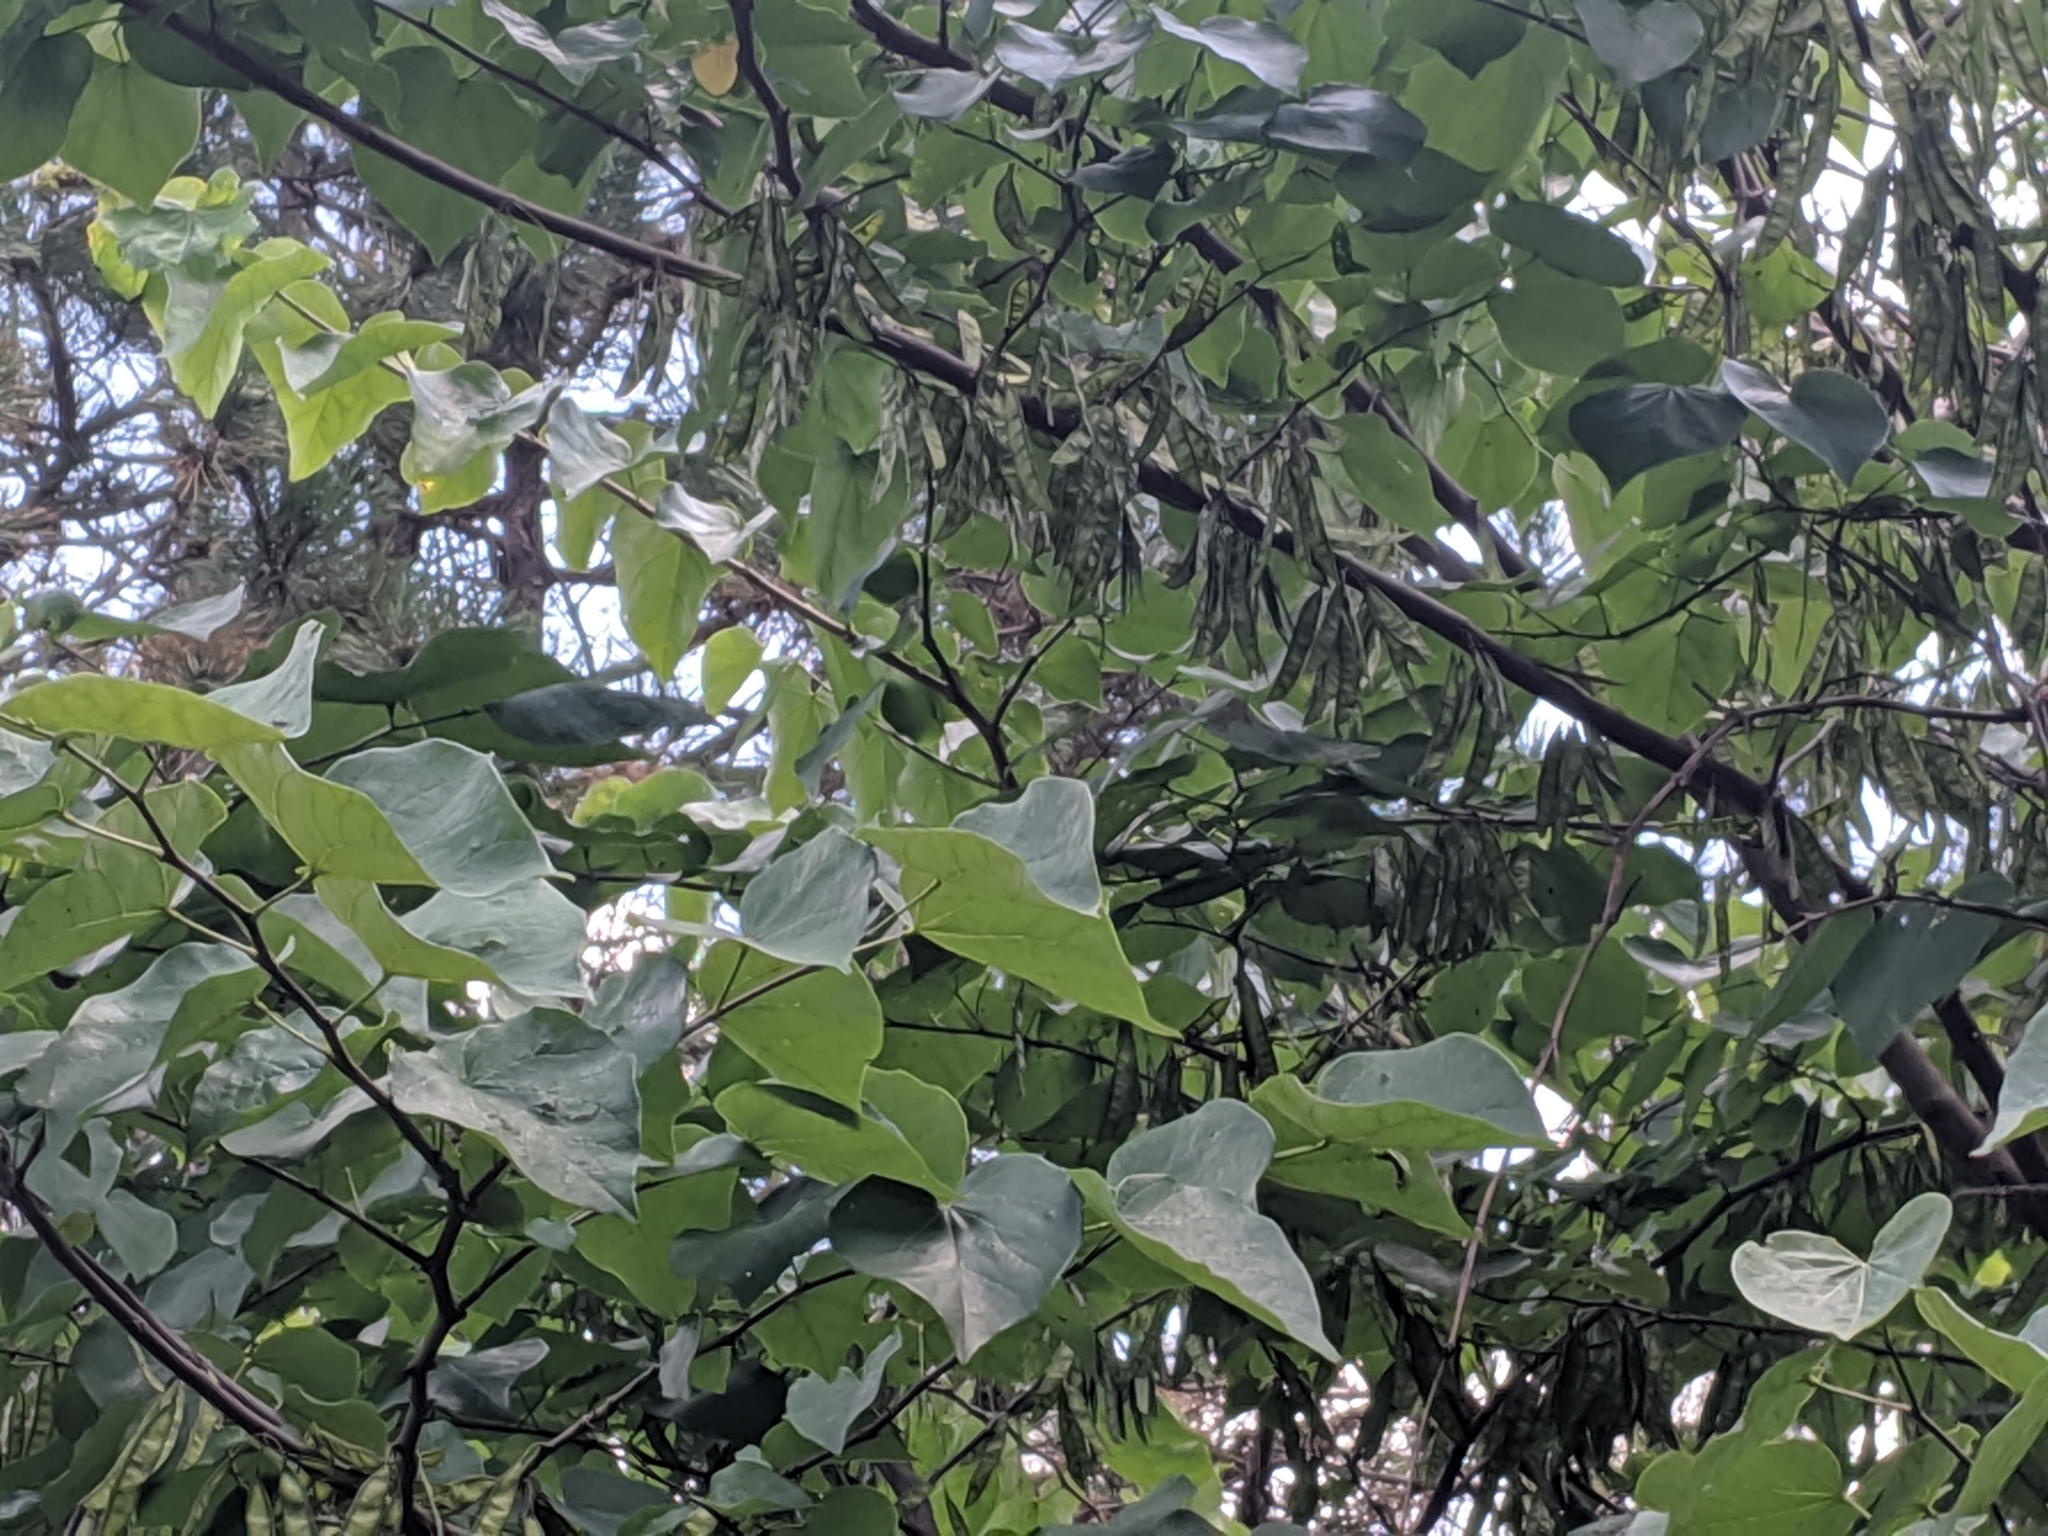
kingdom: Plantae
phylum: Tracheophyta
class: Magnoliopsida
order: Fabales
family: Fabaceae
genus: Cercis
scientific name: Cercis canadensis
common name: Eastern redbud
